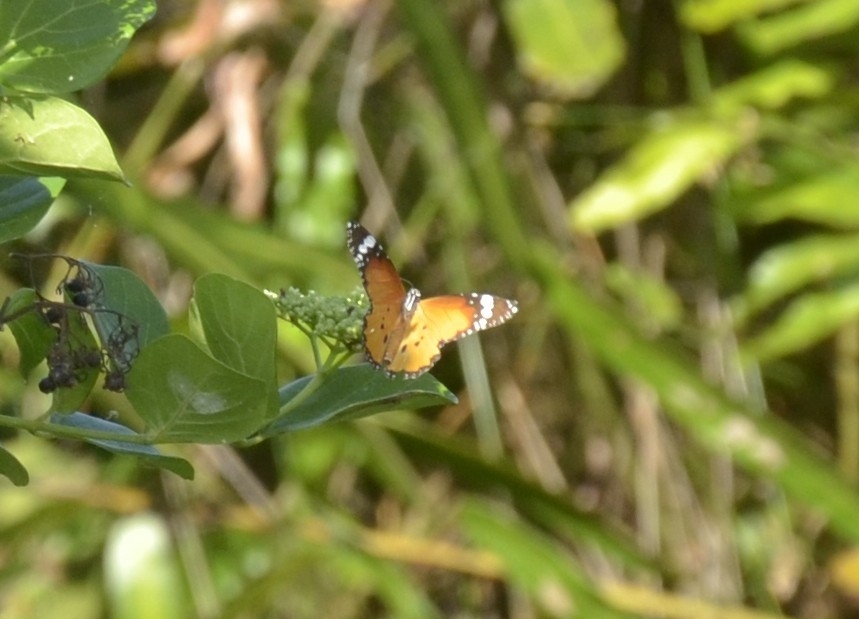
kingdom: Animalia
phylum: Arthropoda
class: Insecta
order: Lepidoptera
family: Nymphalidae
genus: Danaus
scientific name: Danaus chrysippus
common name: Plain tiger
